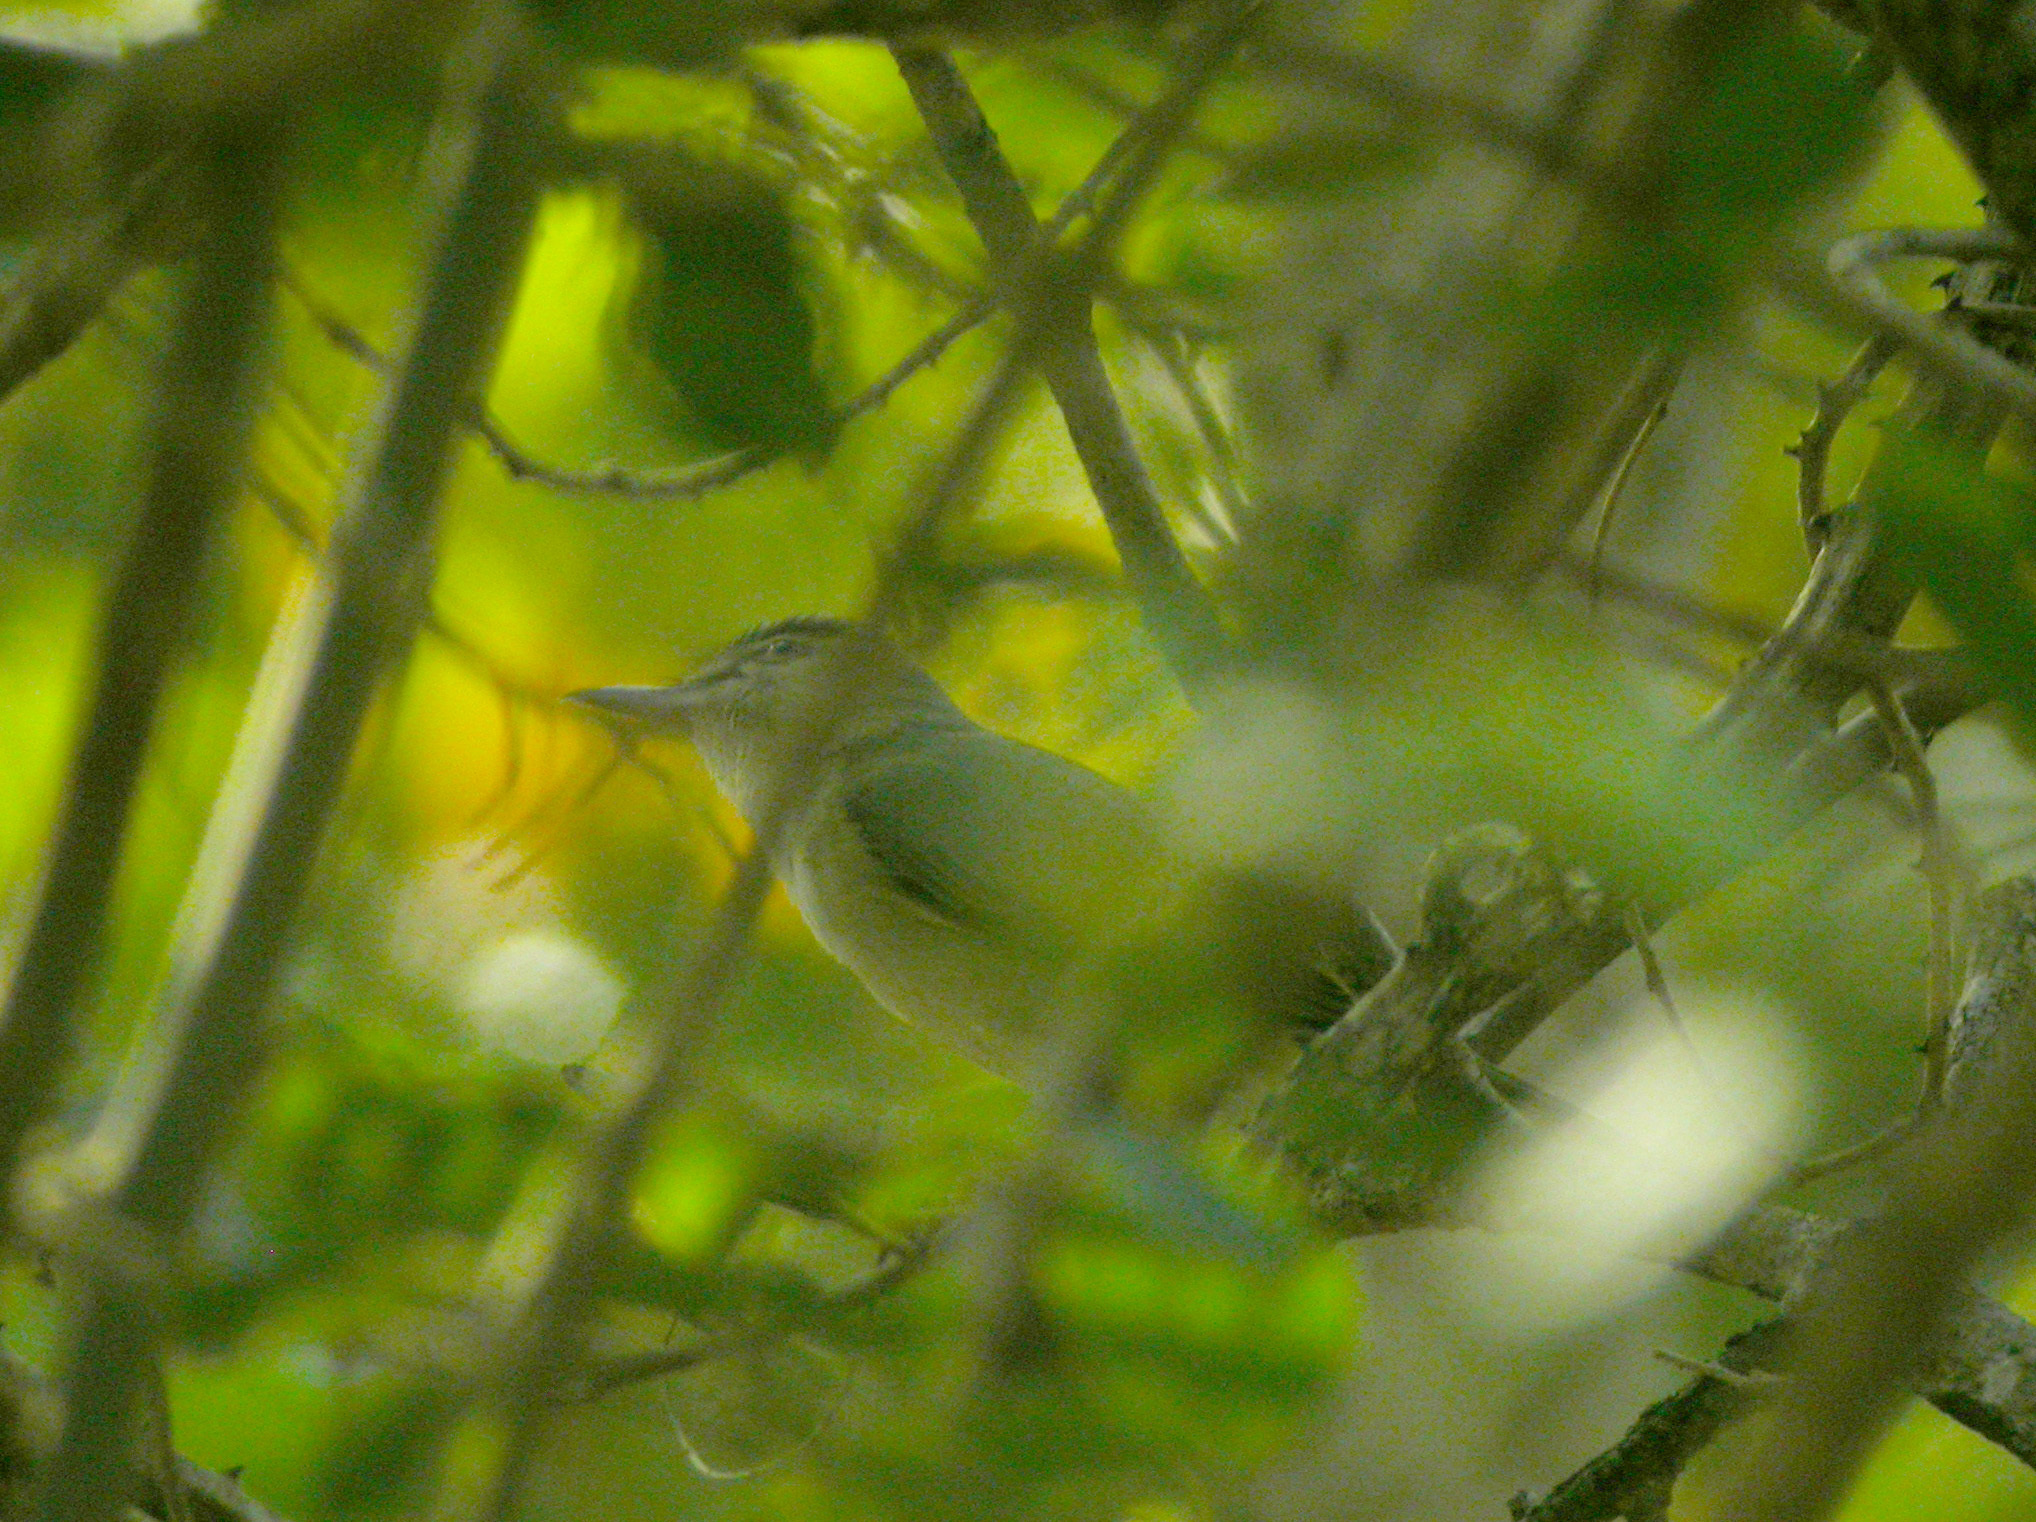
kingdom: Animalia
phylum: Chordata
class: Aves
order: Passeriformes
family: Vireonidae
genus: Vireo
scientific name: Vireo altiloquus
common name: Black-whiskered vireo
